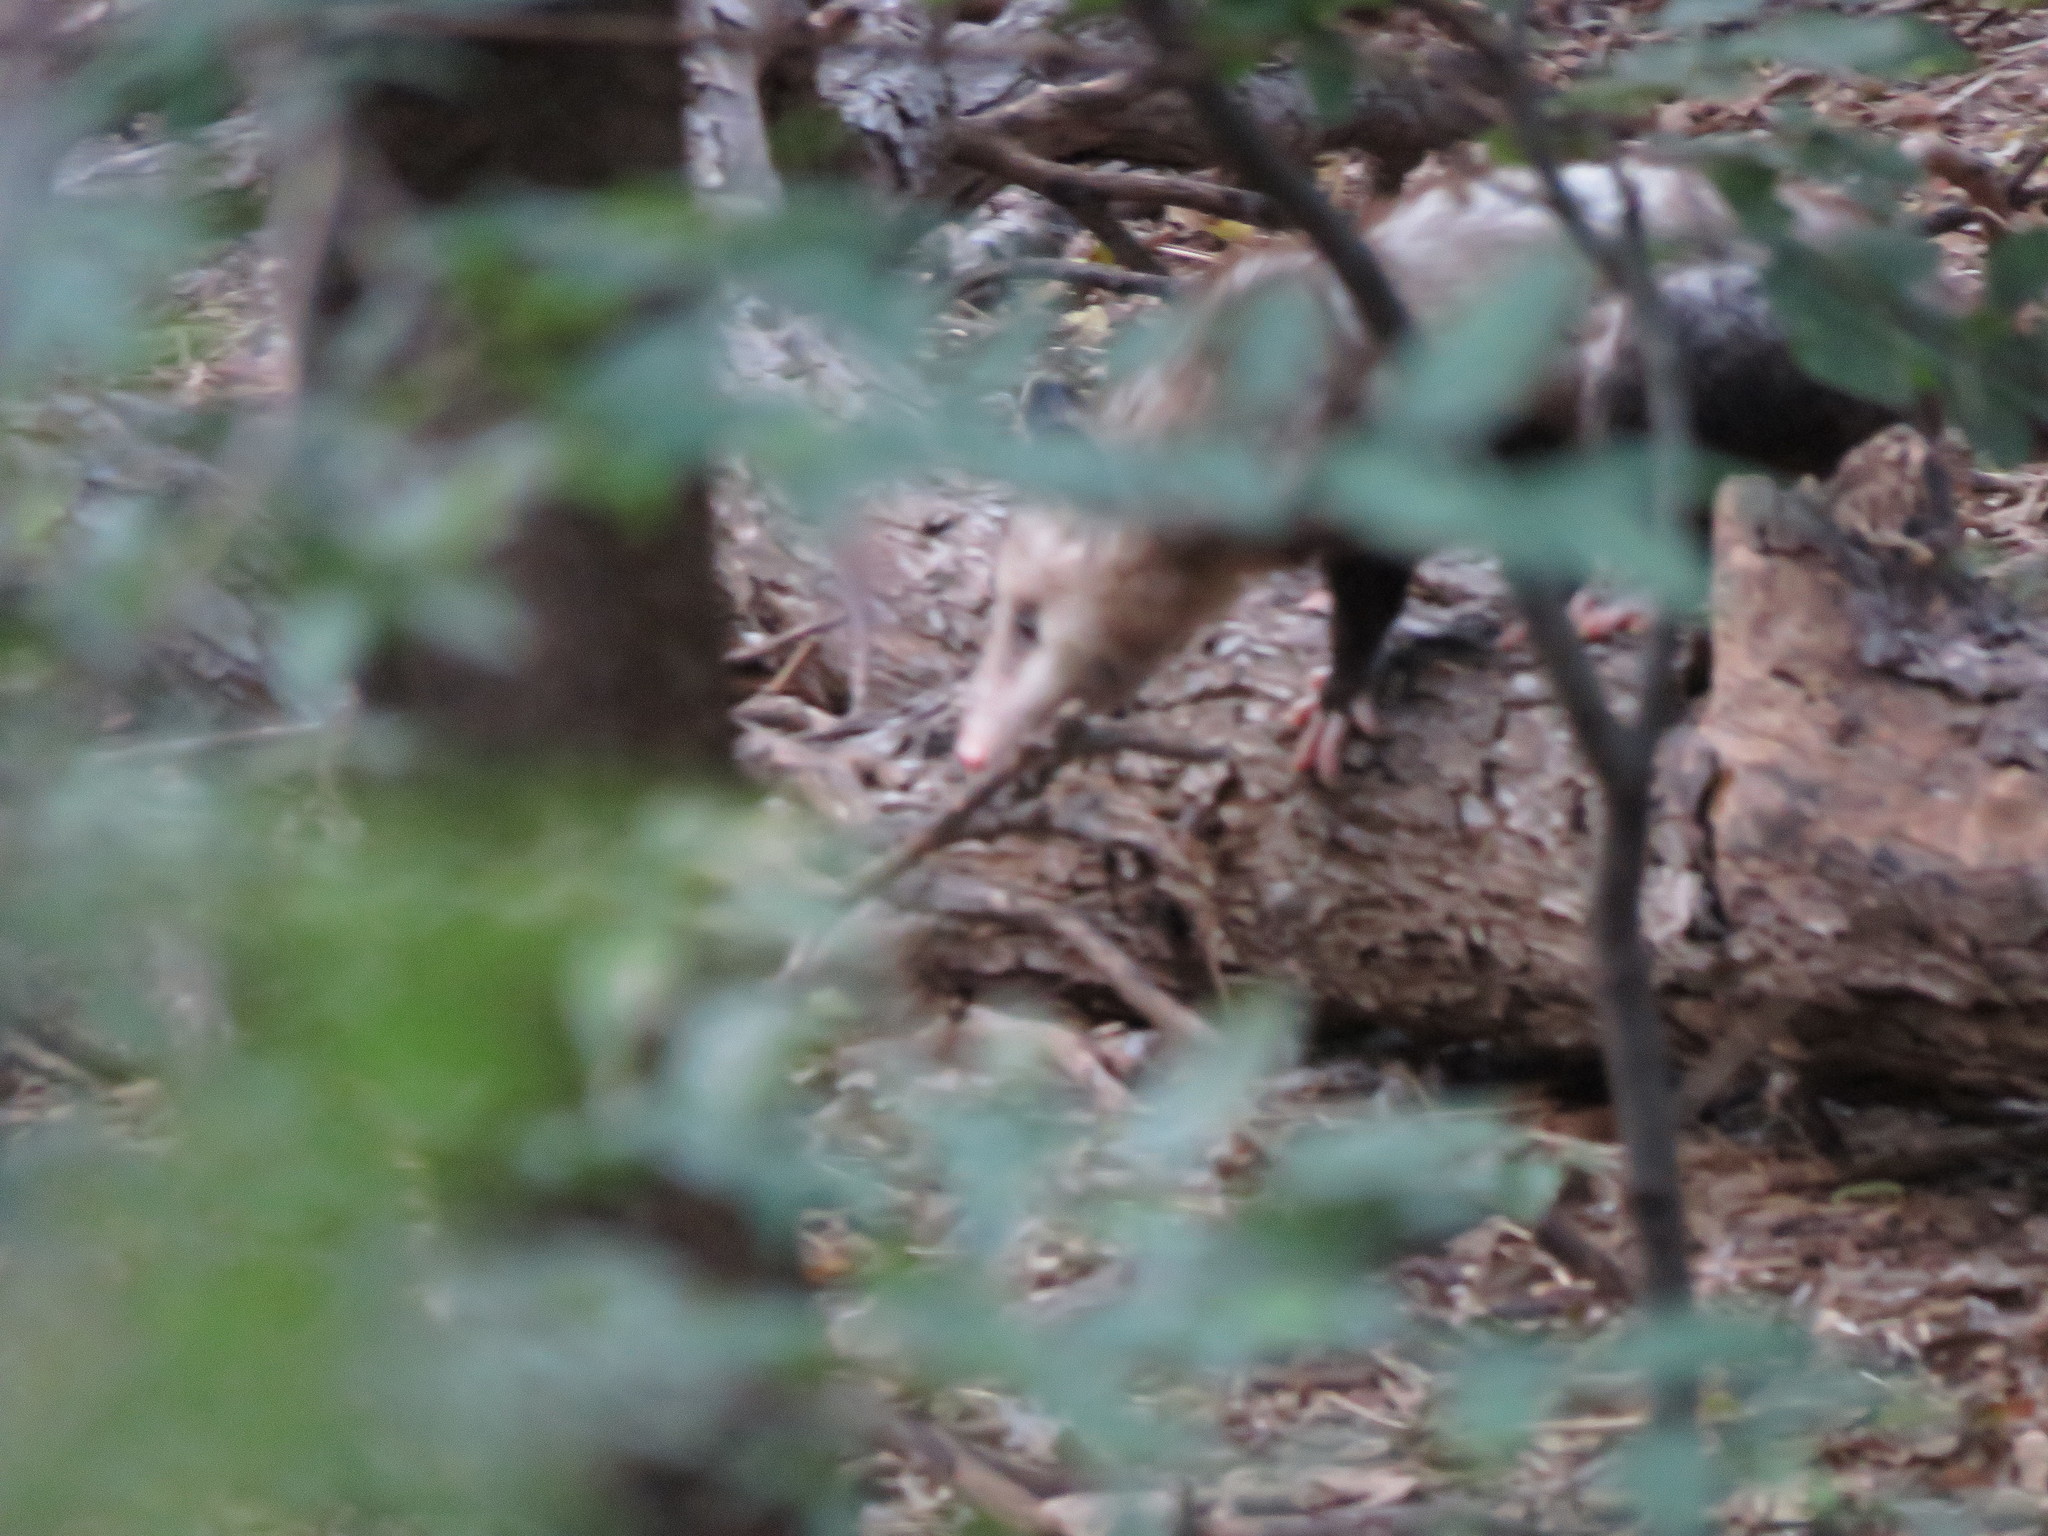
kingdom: Animalia
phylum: Chordata
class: Mammalia
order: Didelphimorphia
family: Didelphidae
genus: Didelphis
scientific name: Didelphis virginiana
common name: Virginia opossum
